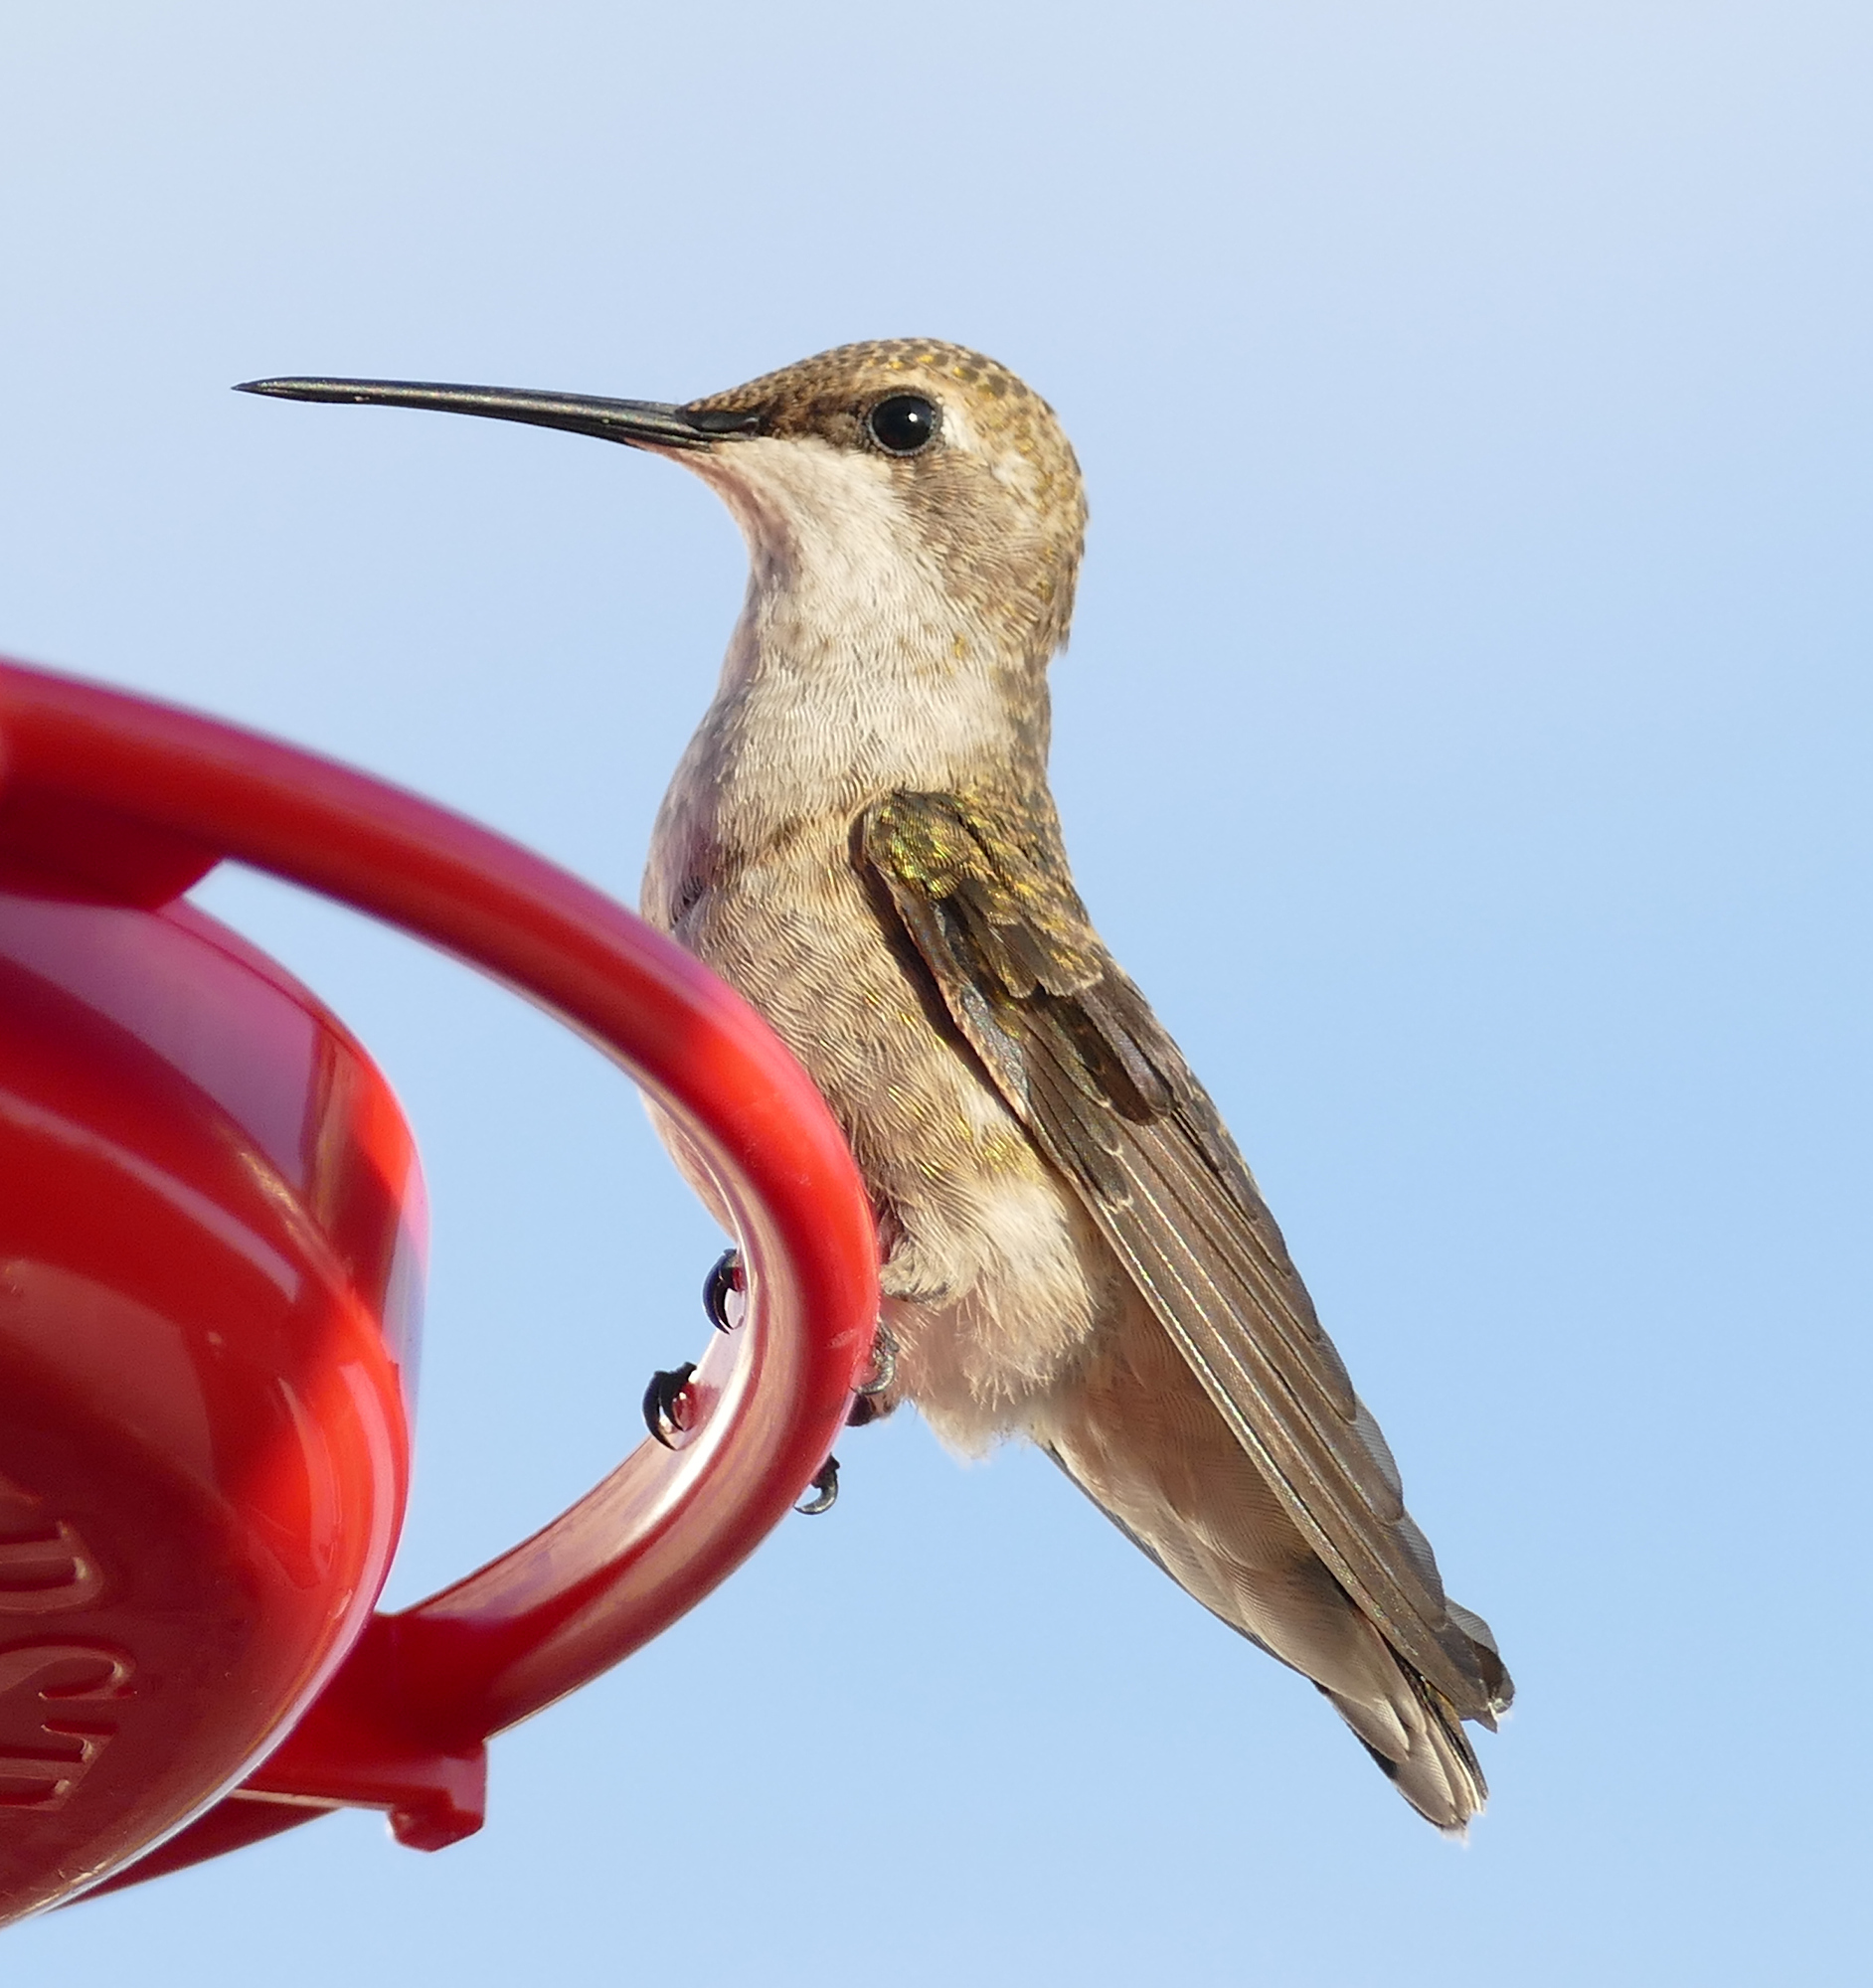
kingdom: Animalia
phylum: Chordata
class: Aves
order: Apodiformes
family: Trochilidae
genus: Archilochus
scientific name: Archilochus alexandri
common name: Black-chinned hummingbird
